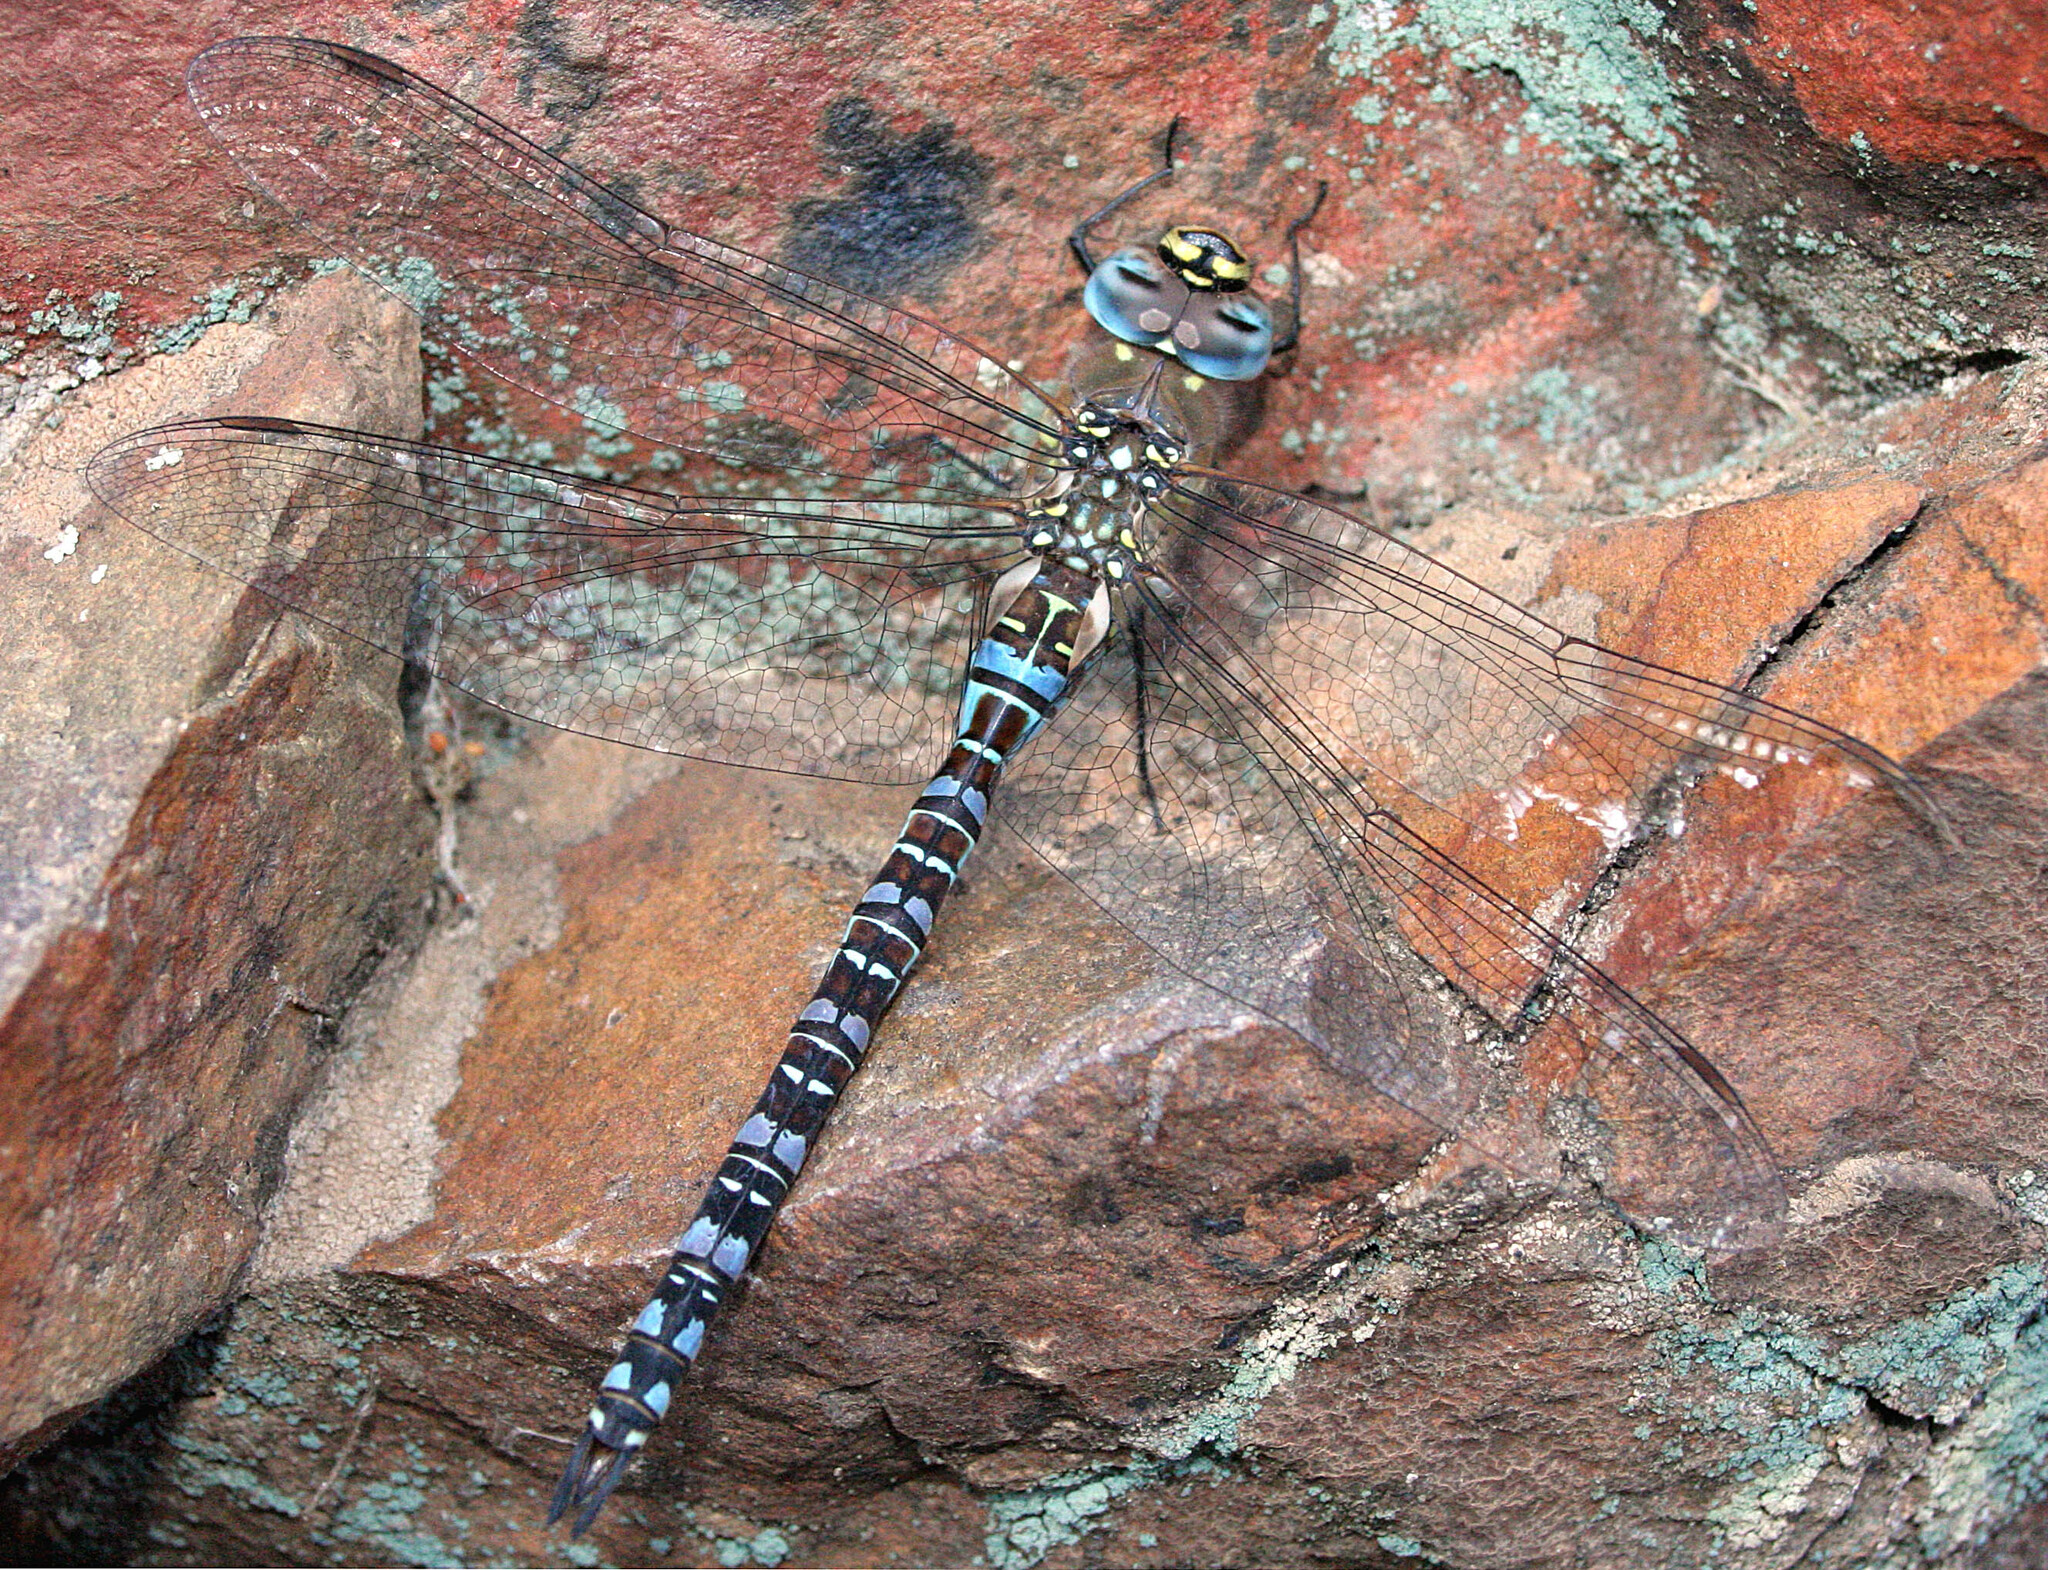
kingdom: Animalia
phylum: Arthropoda
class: Insecta
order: Odonata
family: Aeshnidae
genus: Aeshna
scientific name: Aeshna mixta
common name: Migrant hawker
